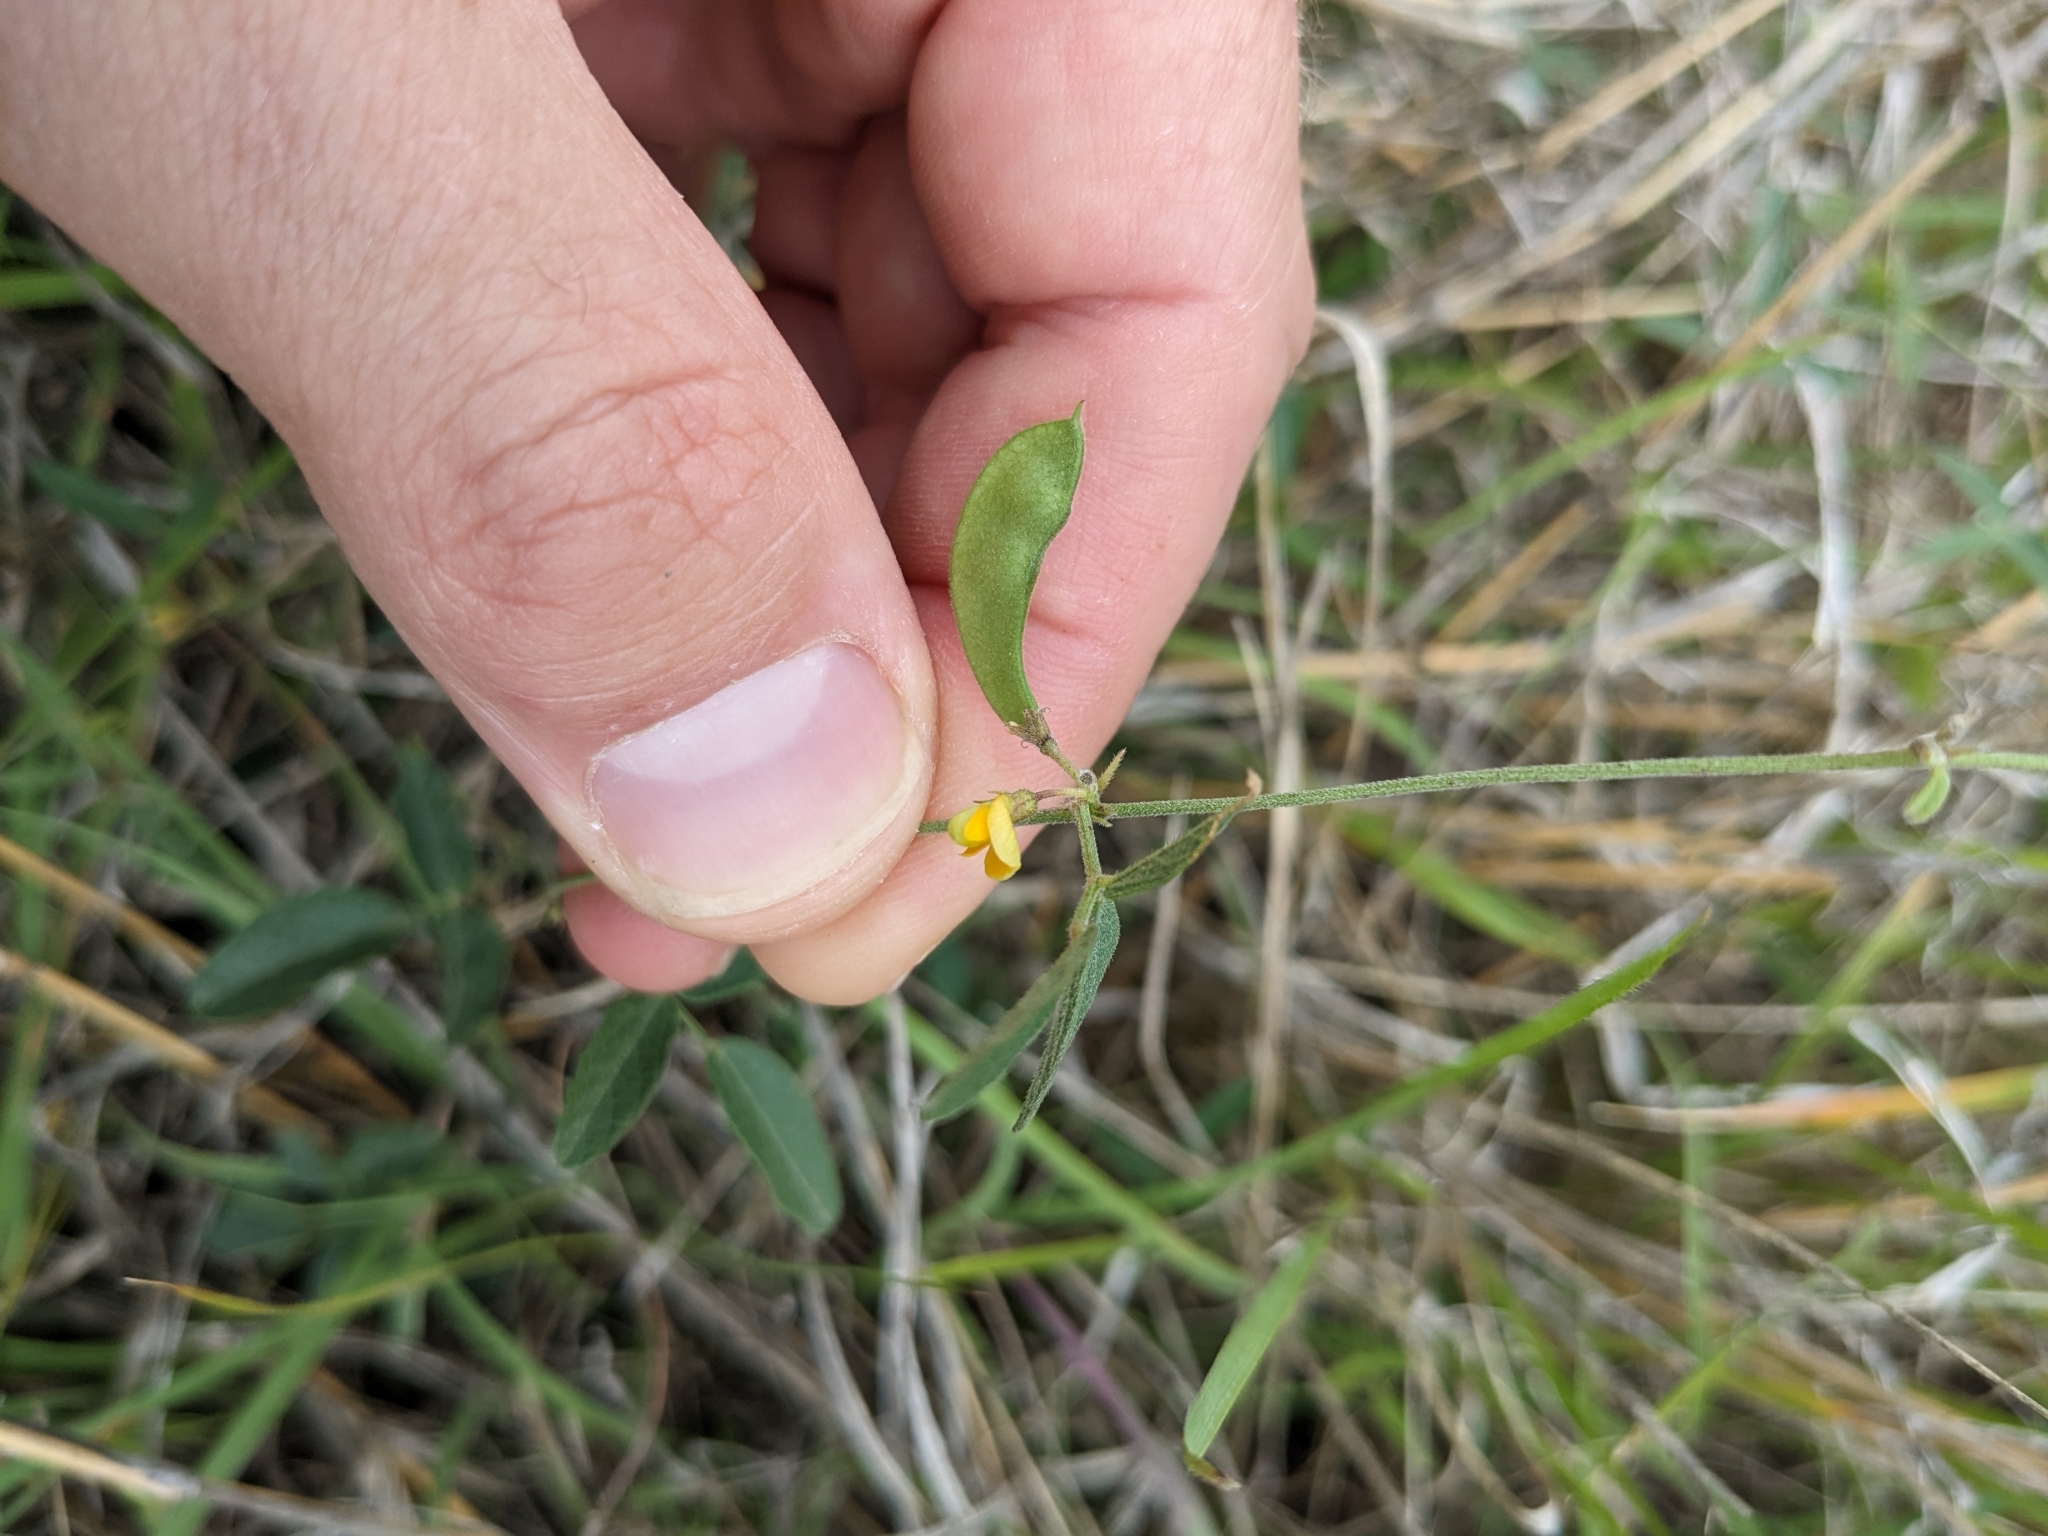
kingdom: Plantae
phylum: Tracheophyta
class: Magnoliopsida
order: Fabales
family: Fabaceae
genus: Rhynchosia
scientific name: Rhynchosia senna
